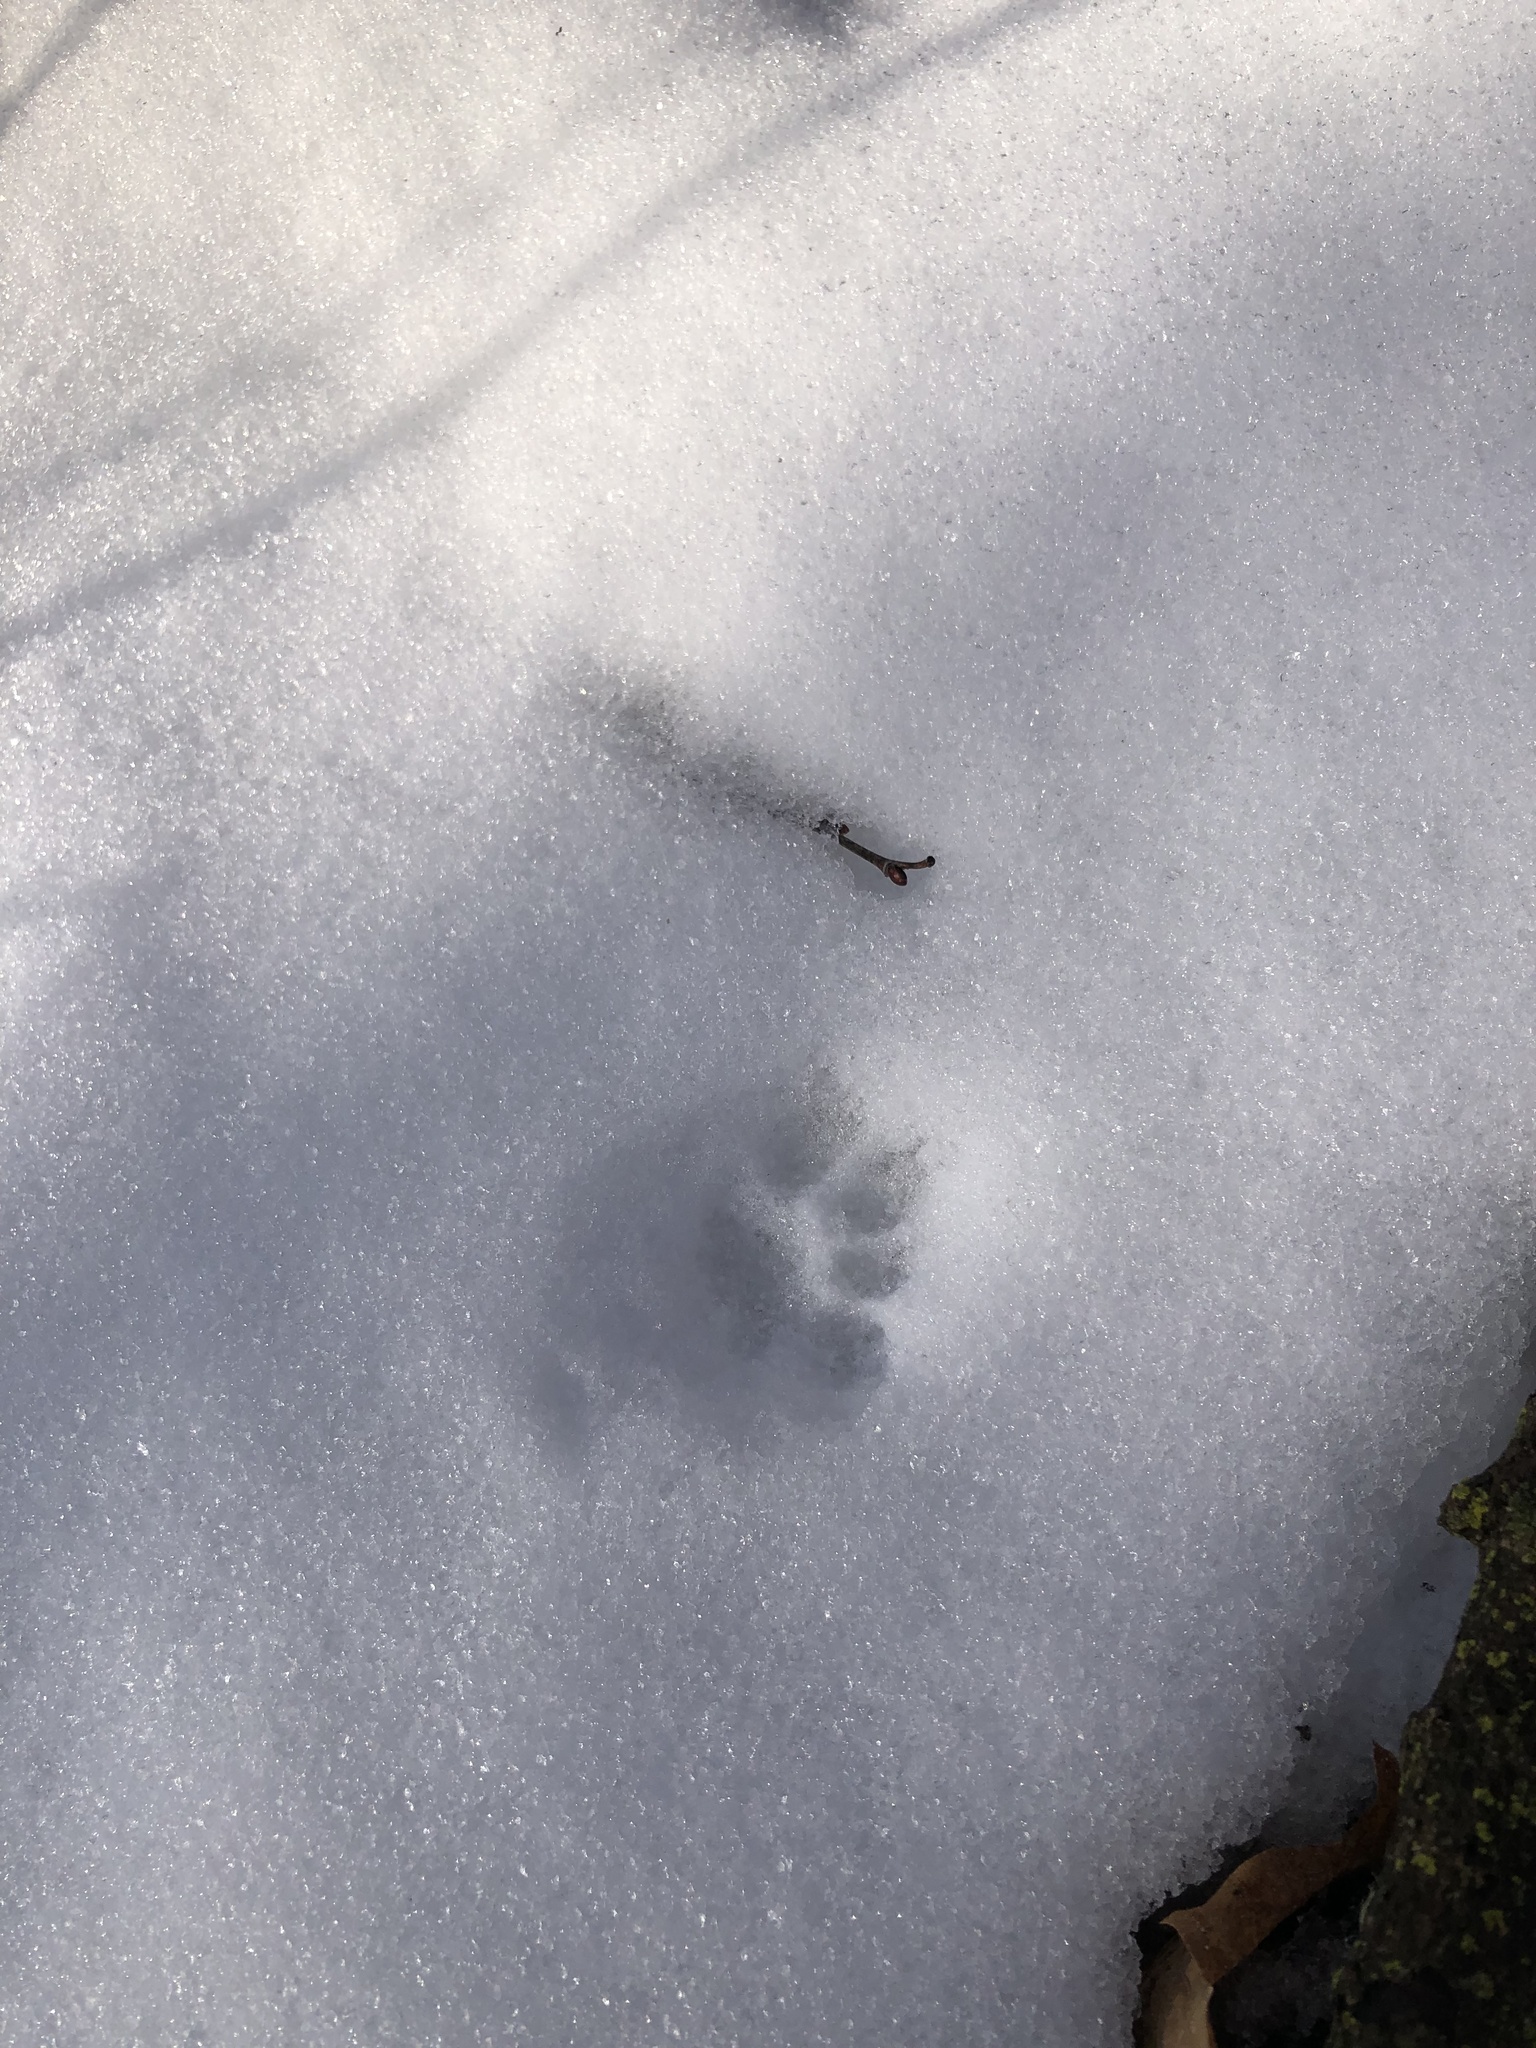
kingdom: Animalia
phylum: Chordata
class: Mammalia
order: Carnivora
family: Felidae
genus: Felis
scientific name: Felis catus
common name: Domestic cat
